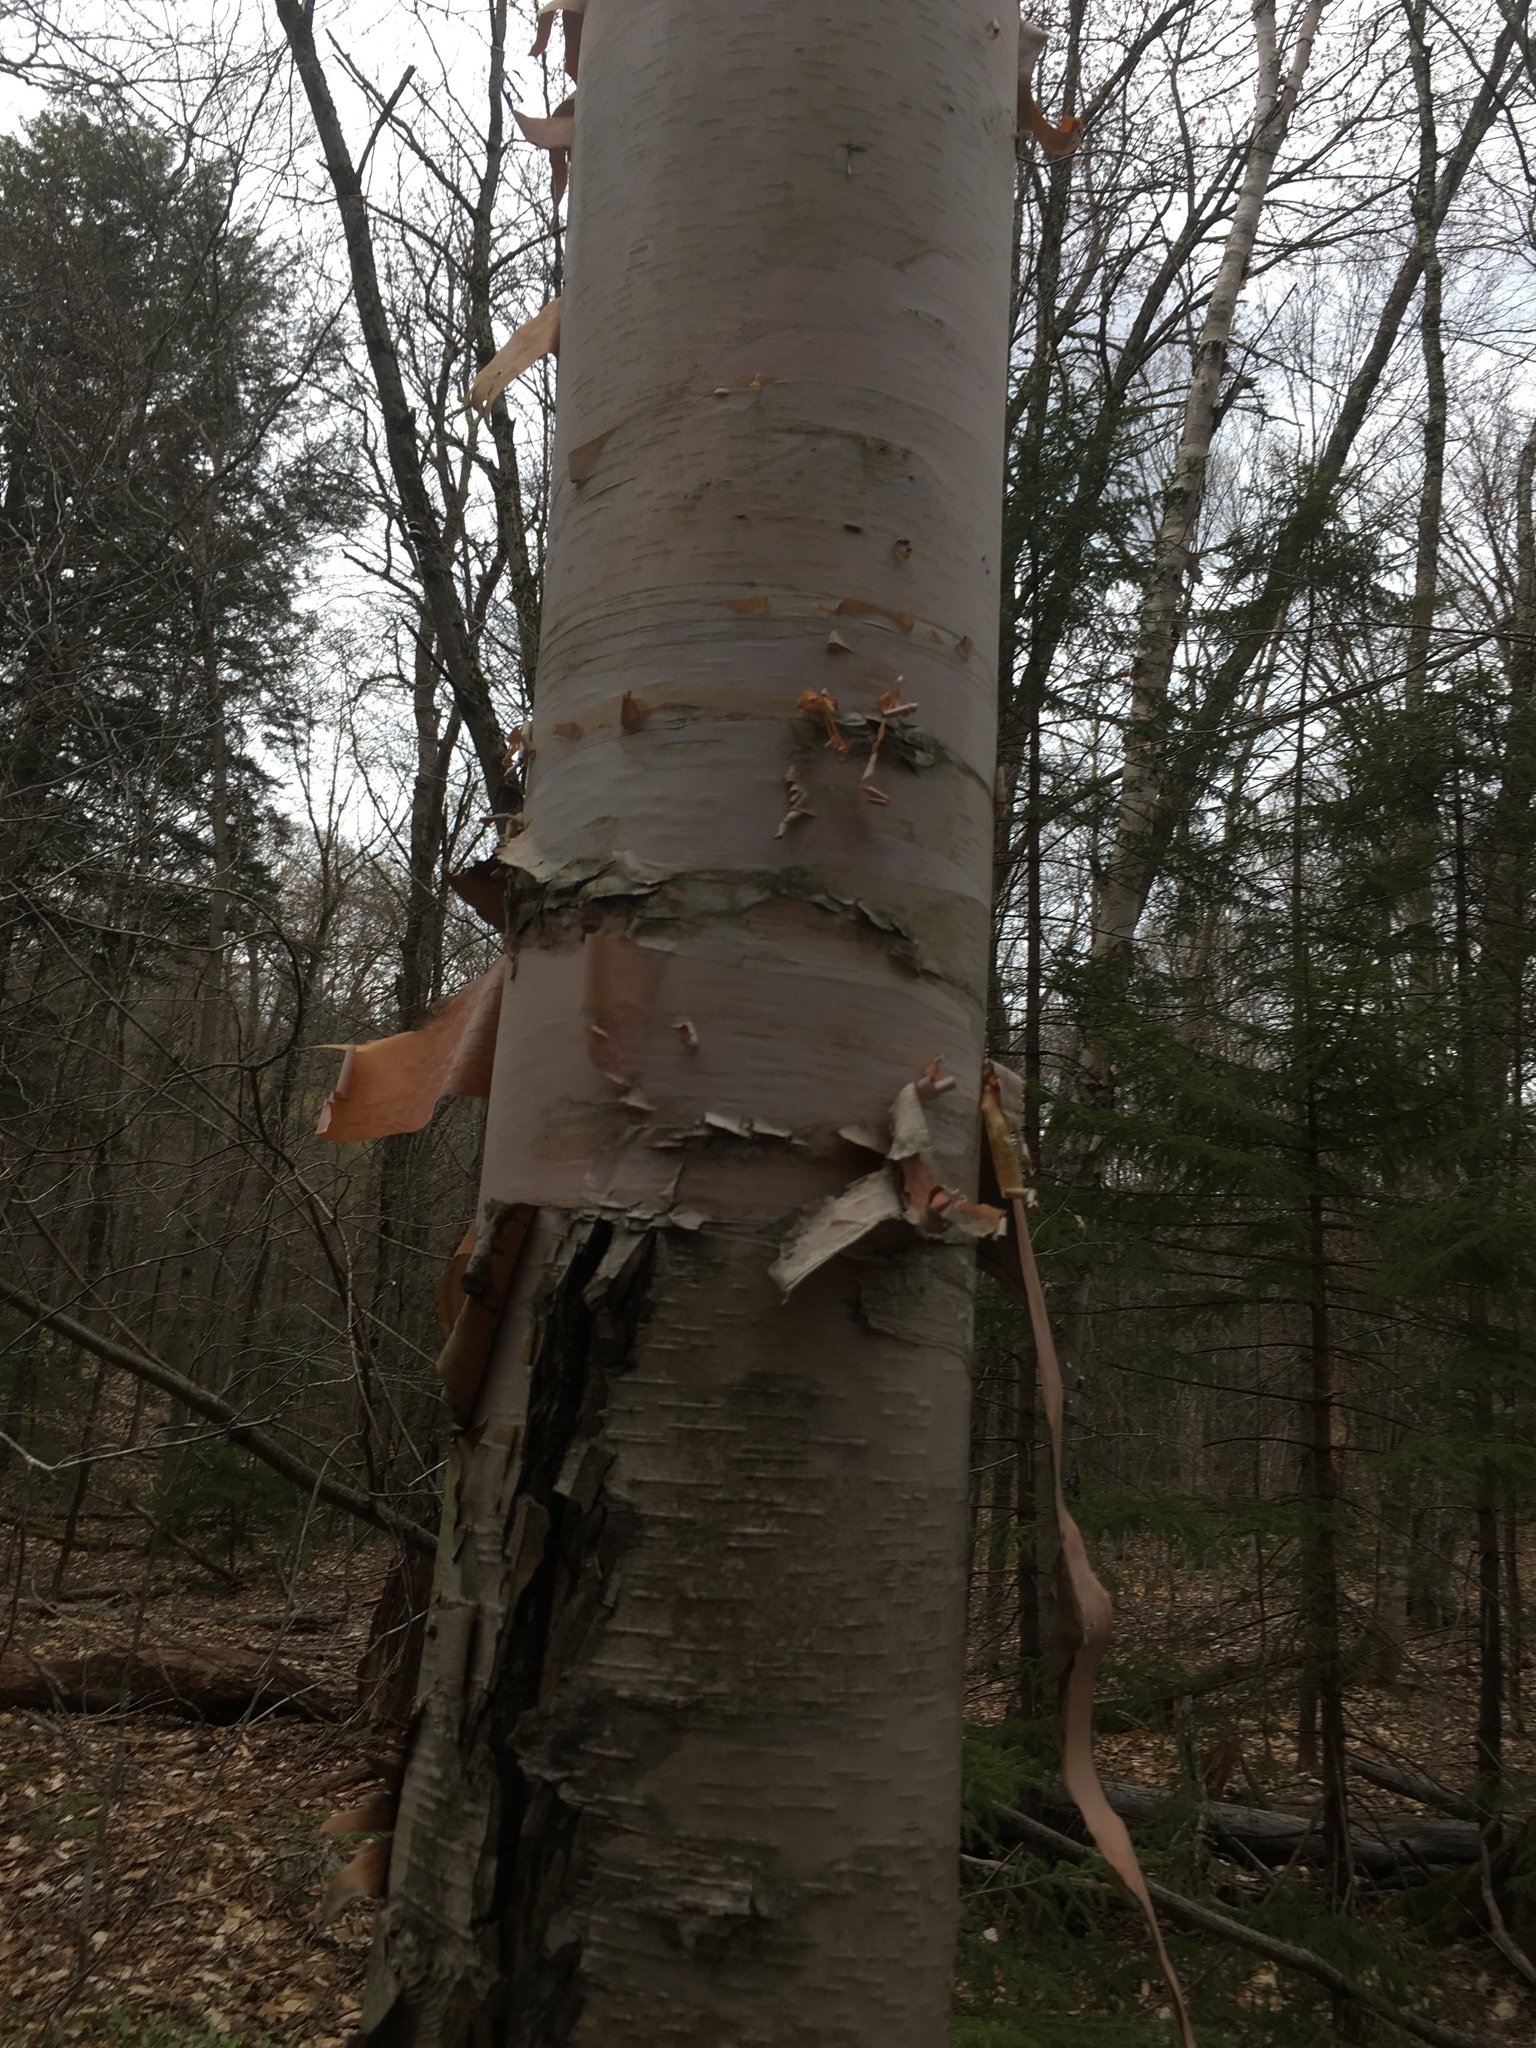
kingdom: Plantae
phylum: Tracheophyta
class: Magnoliopsida
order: Fagales
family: Betulaceae
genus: Betula
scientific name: Betula cordifolia
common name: Mountain white birch
